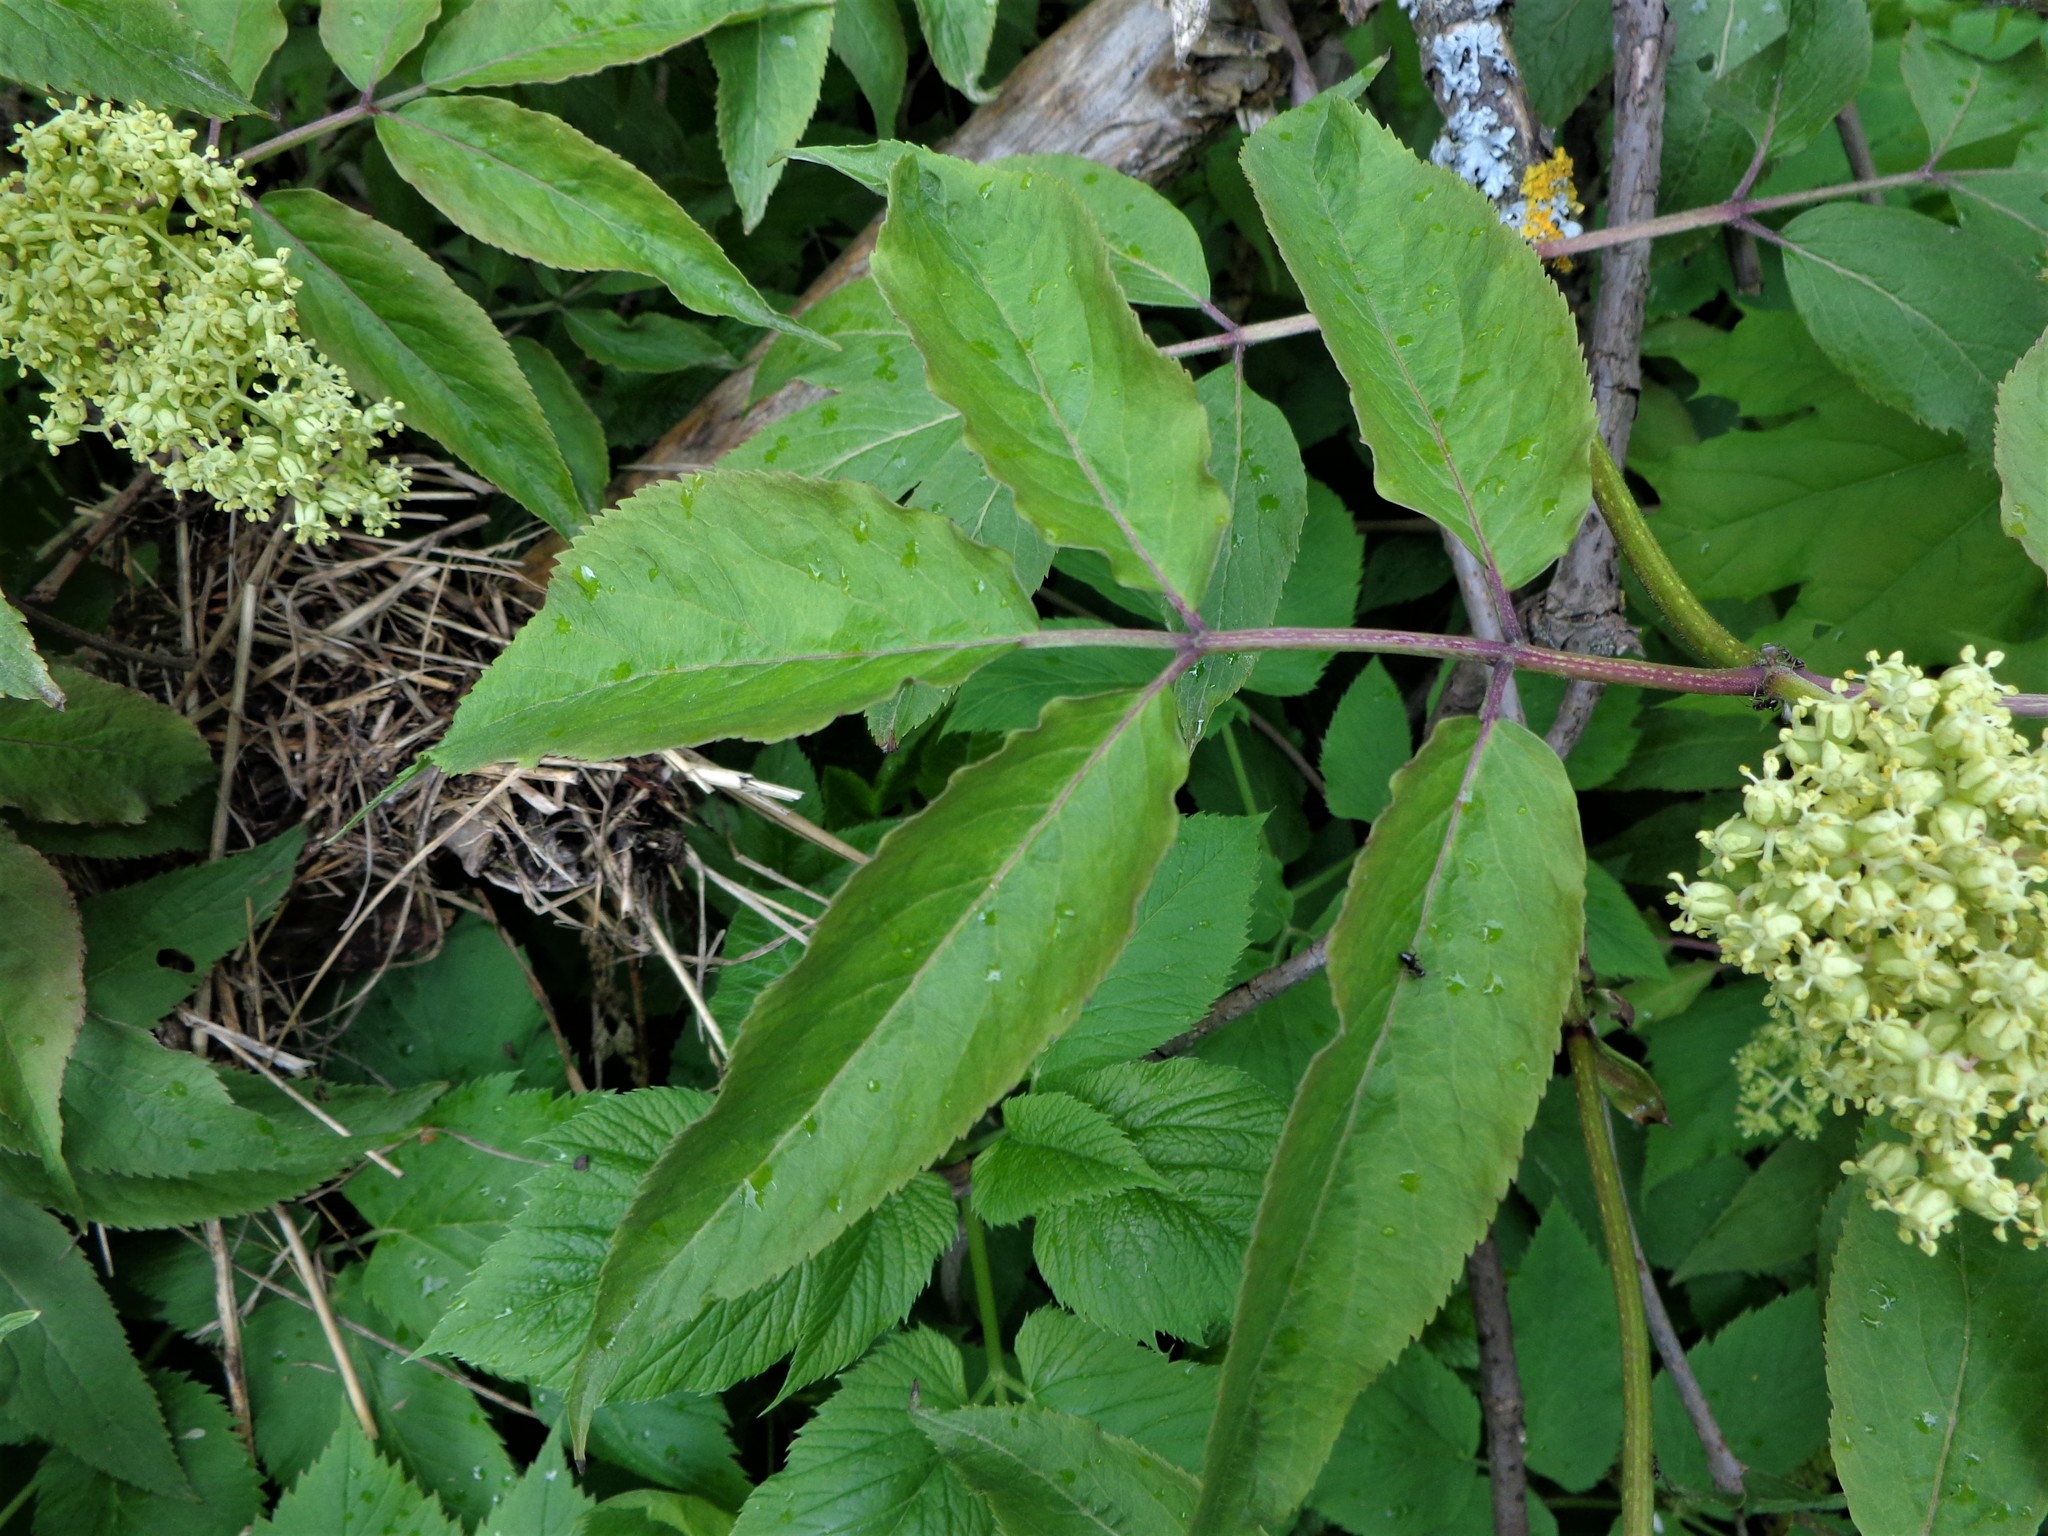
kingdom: Plantae
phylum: Tracheophyta
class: Magnoliopsida
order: Dipsacales
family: Viburnaceae
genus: Sambucus
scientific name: Sambucus racemosa
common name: Red-berried elder
